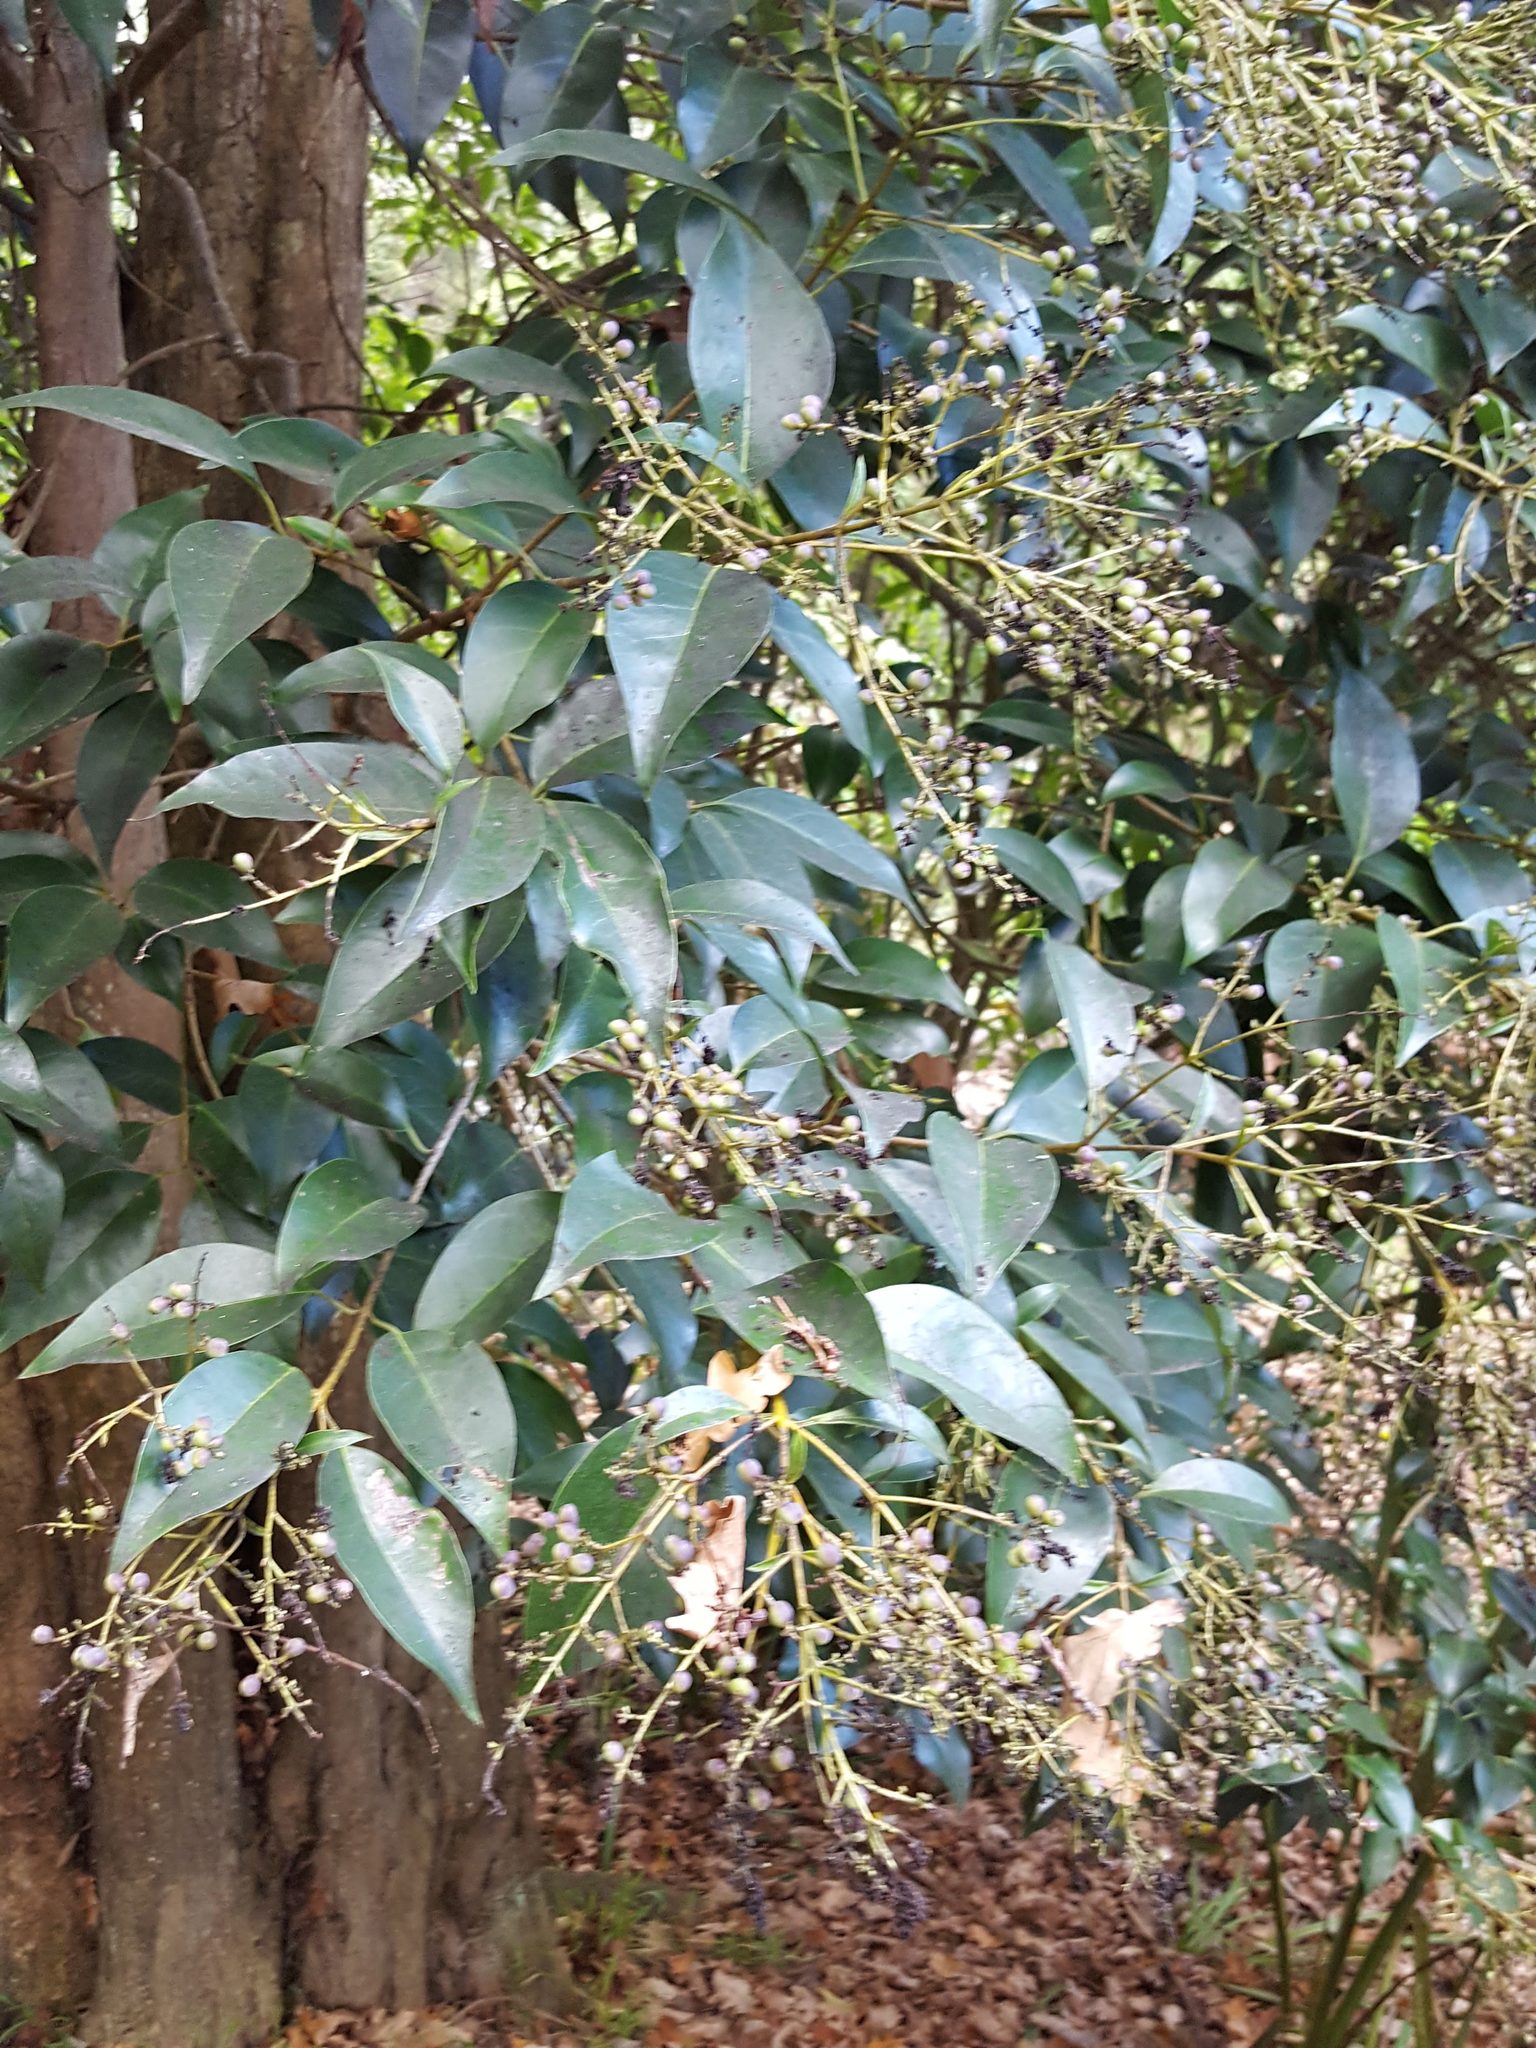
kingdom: Plantae
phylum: Tracheophyta
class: Magnoliopsida
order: Lamiales
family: Oleaceae
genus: Ligustrum
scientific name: Ligustrum lucidum
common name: Glossy privet
